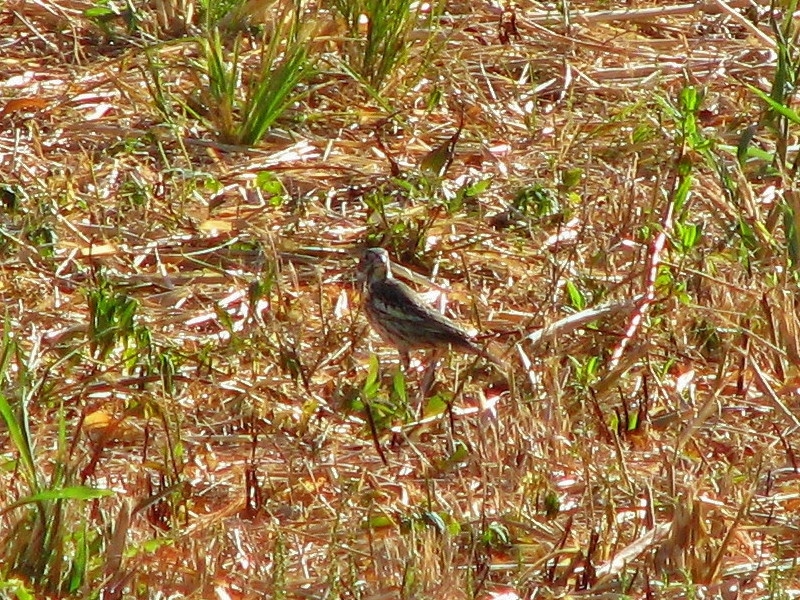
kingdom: Animalia
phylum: Chordata
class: Aves
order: Passeriformes
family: Passerellidae
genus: Calamospiza
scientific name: Calamospiza melanocorys
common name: Lark bunting
